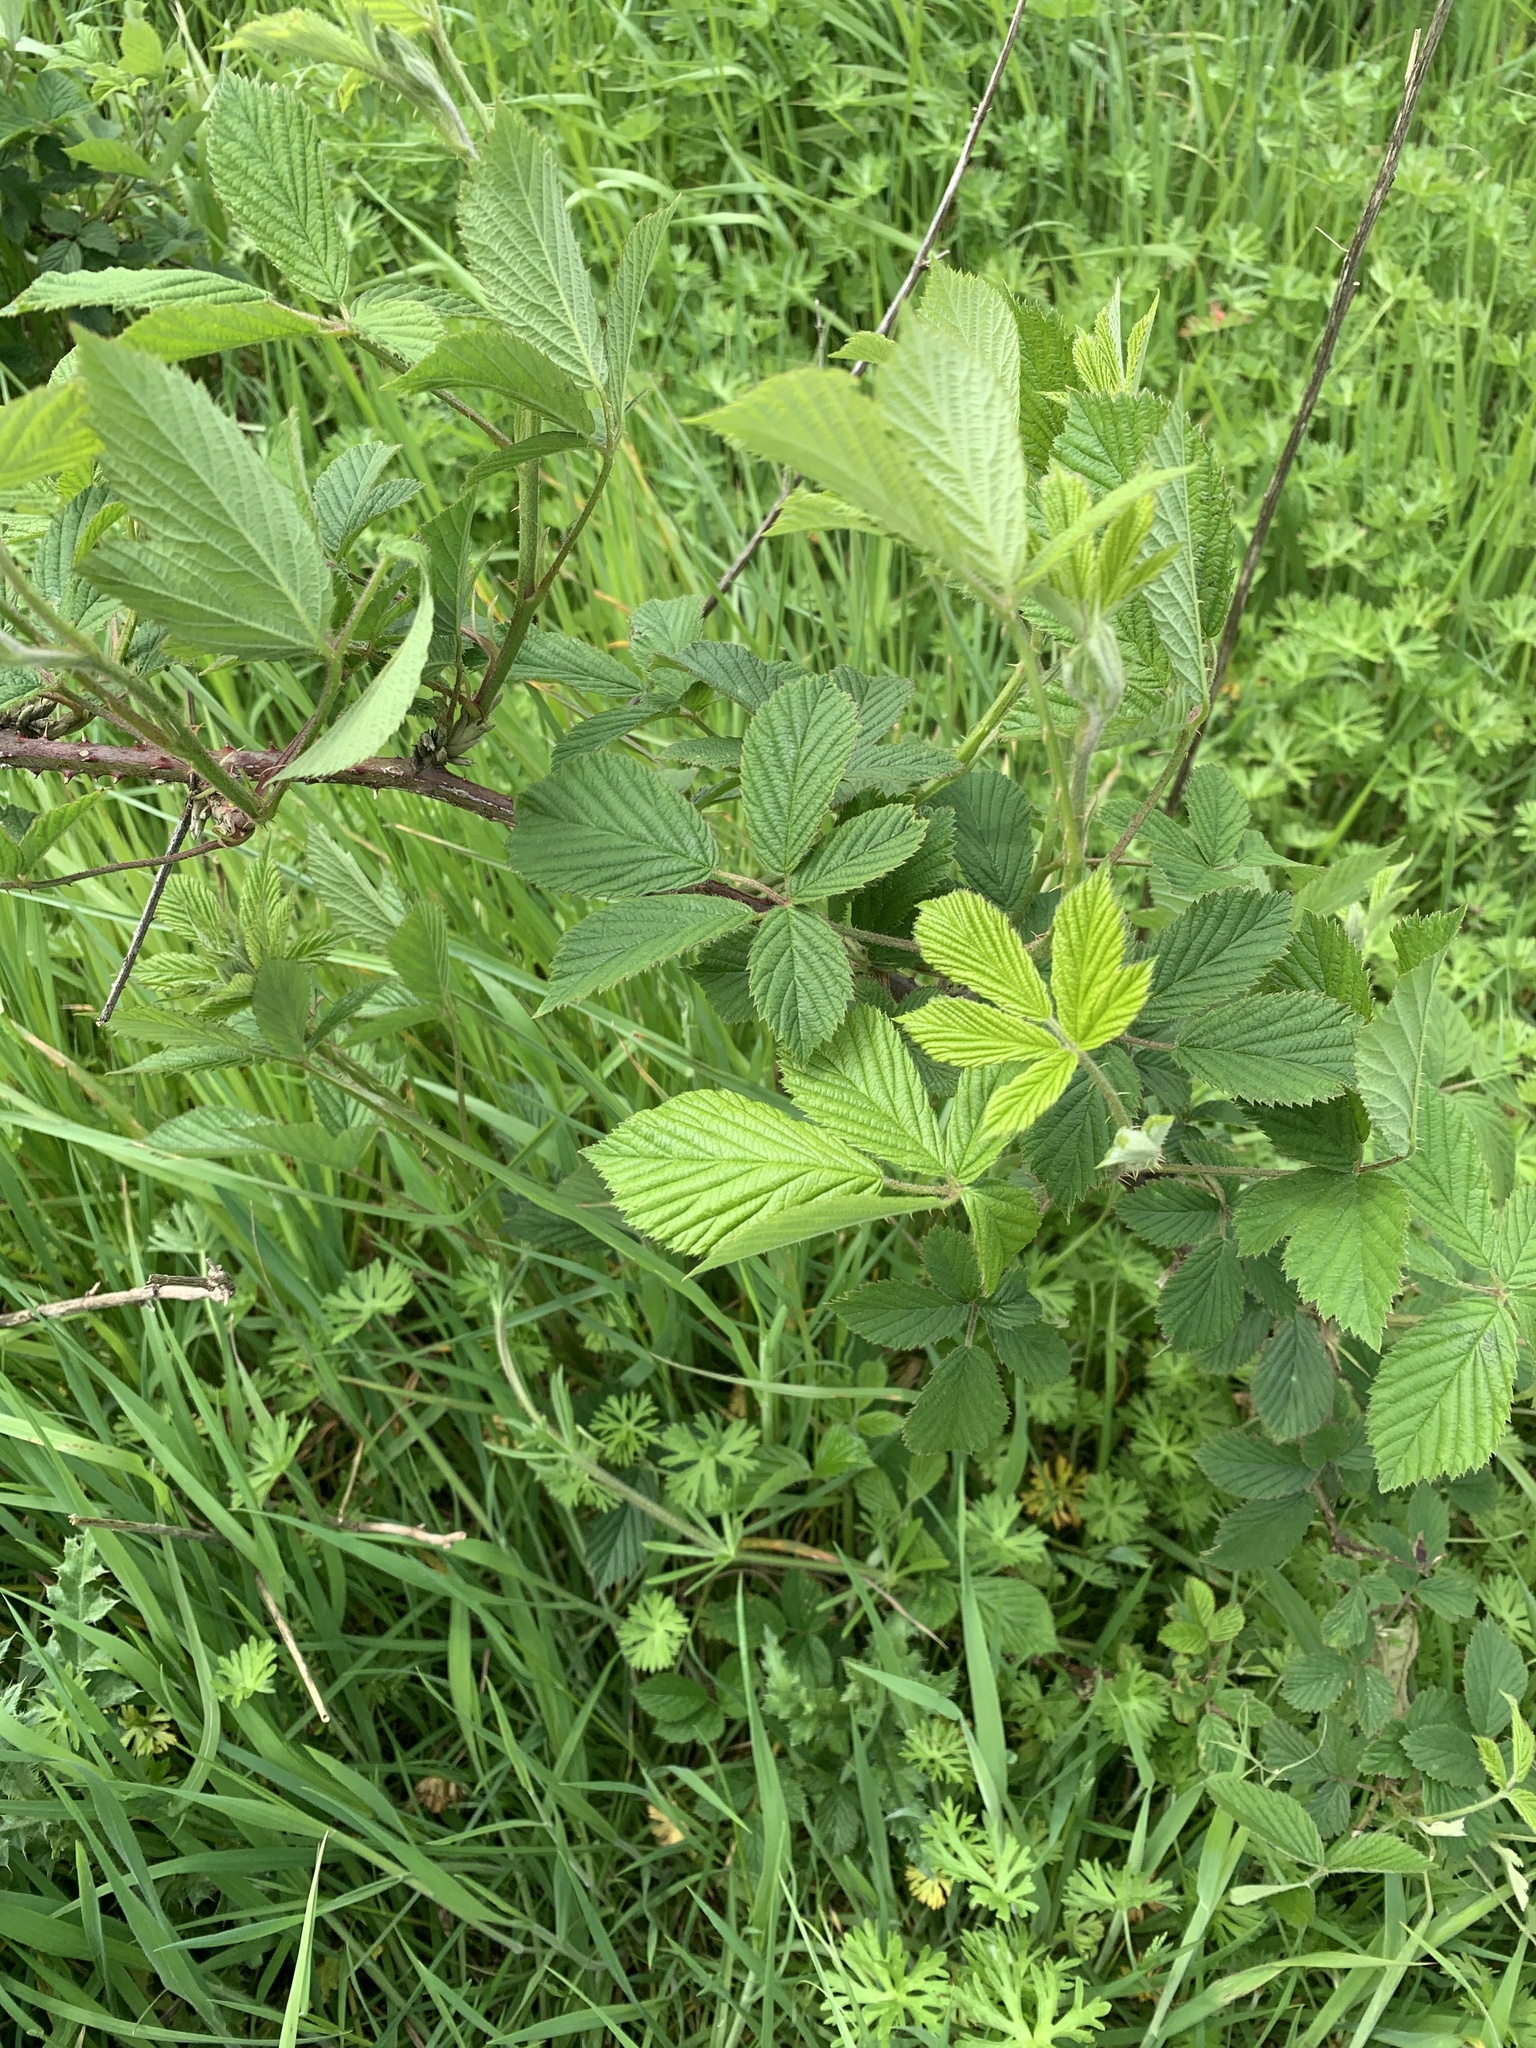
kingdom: Plantae
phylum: Tracheophyta
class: Magnoliopsida
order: Rosales
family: Rosaceae
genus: Rubus
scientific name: Rubus fruticosus
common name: Blackberry, bramble
